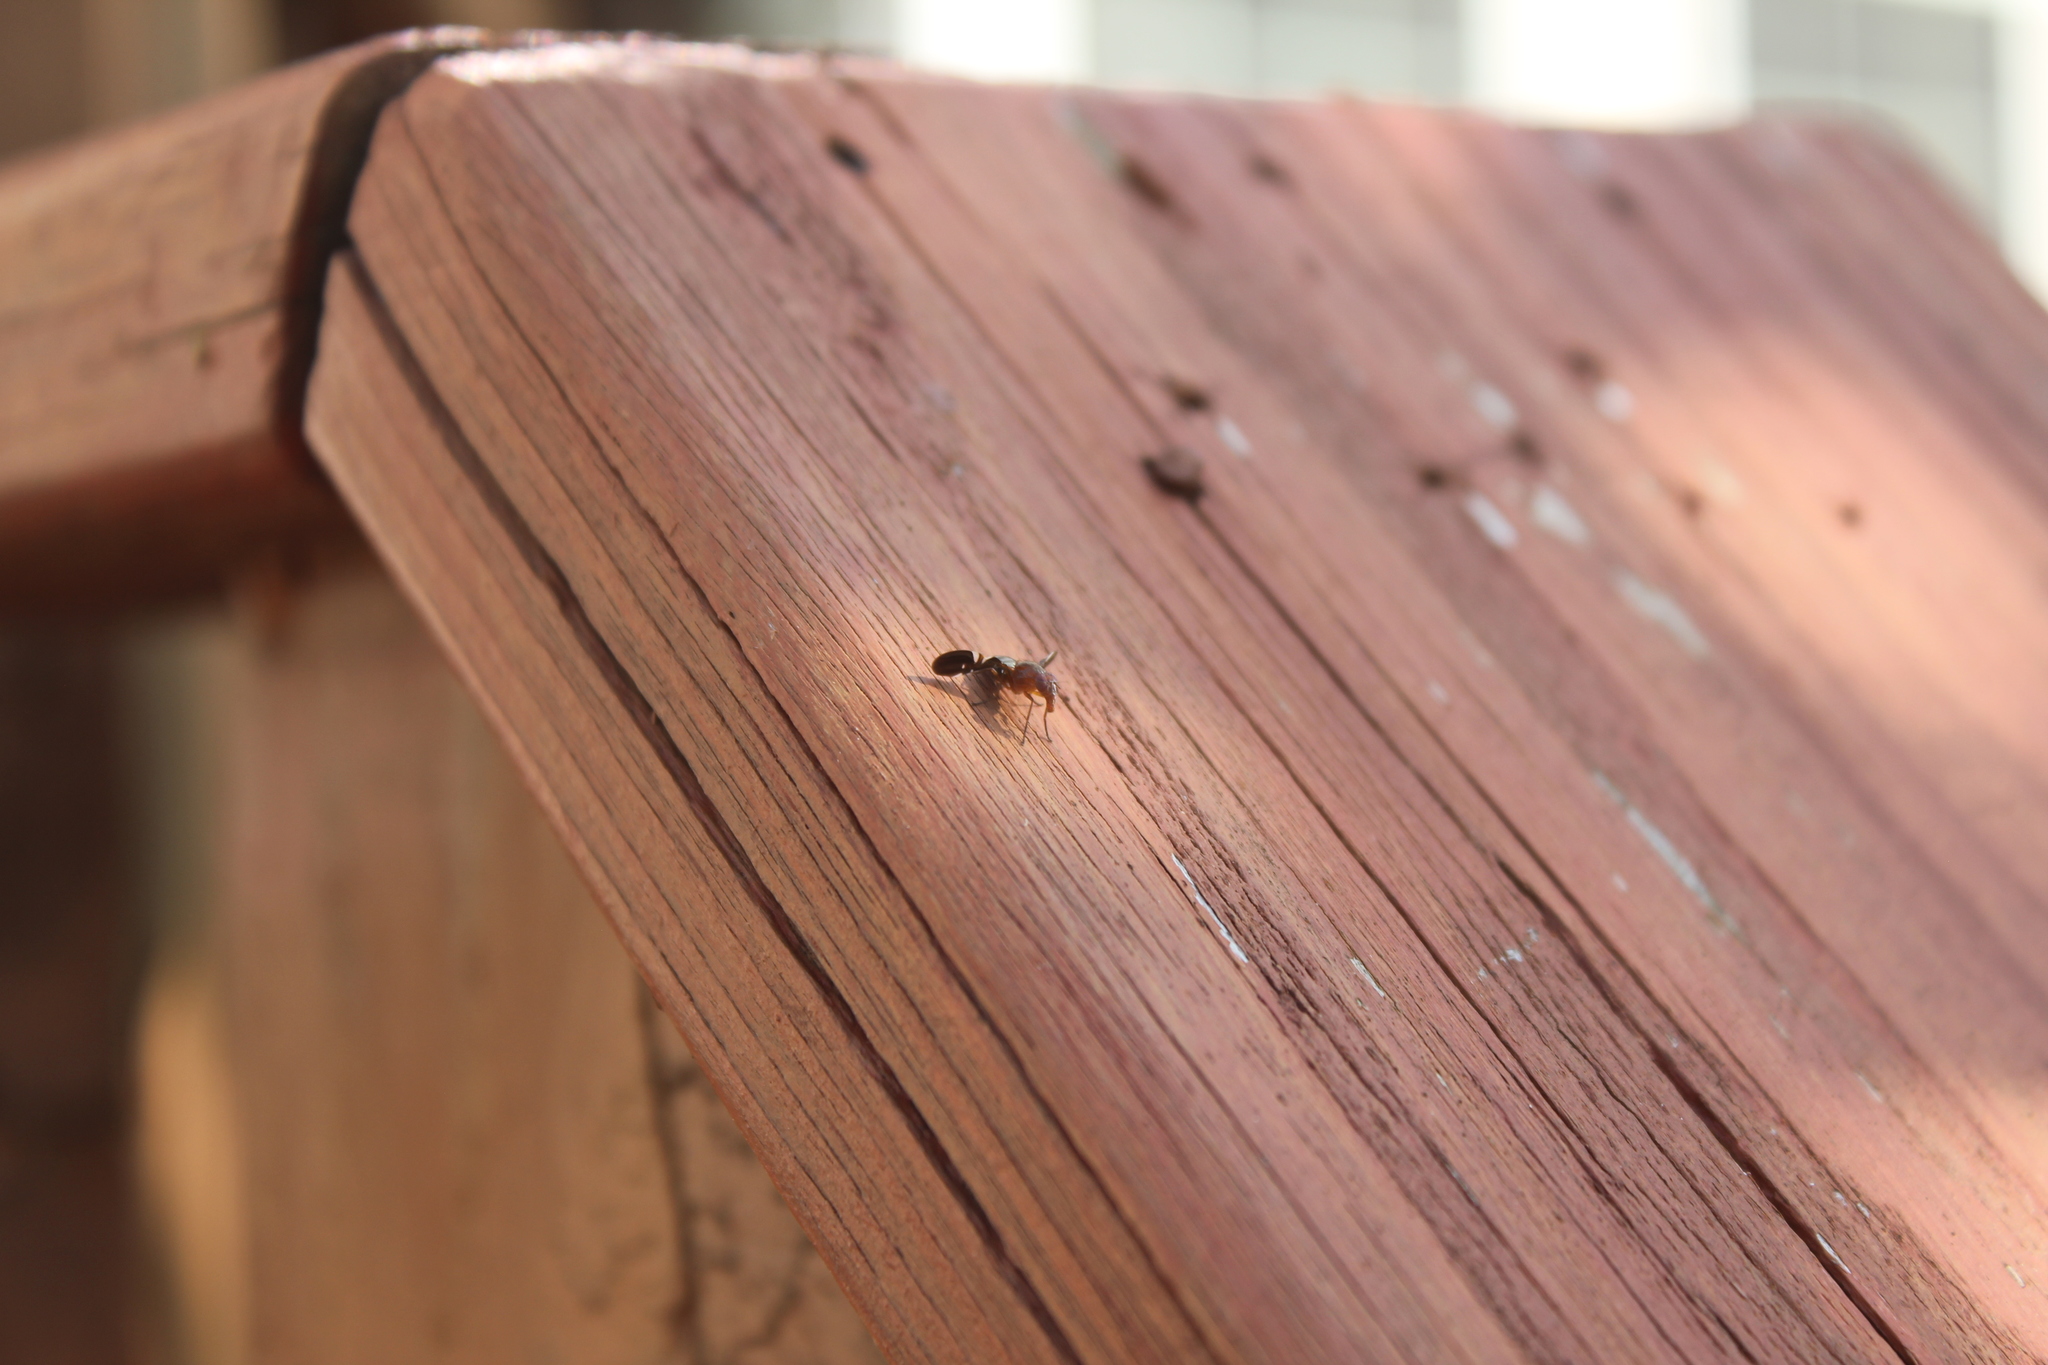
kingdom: Animalia
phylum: Arthropoda
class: Insecta
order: Diptera
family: Ulidiidae
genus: Delphinia
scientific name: Delphinia picta
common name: Common picture-winged fly
